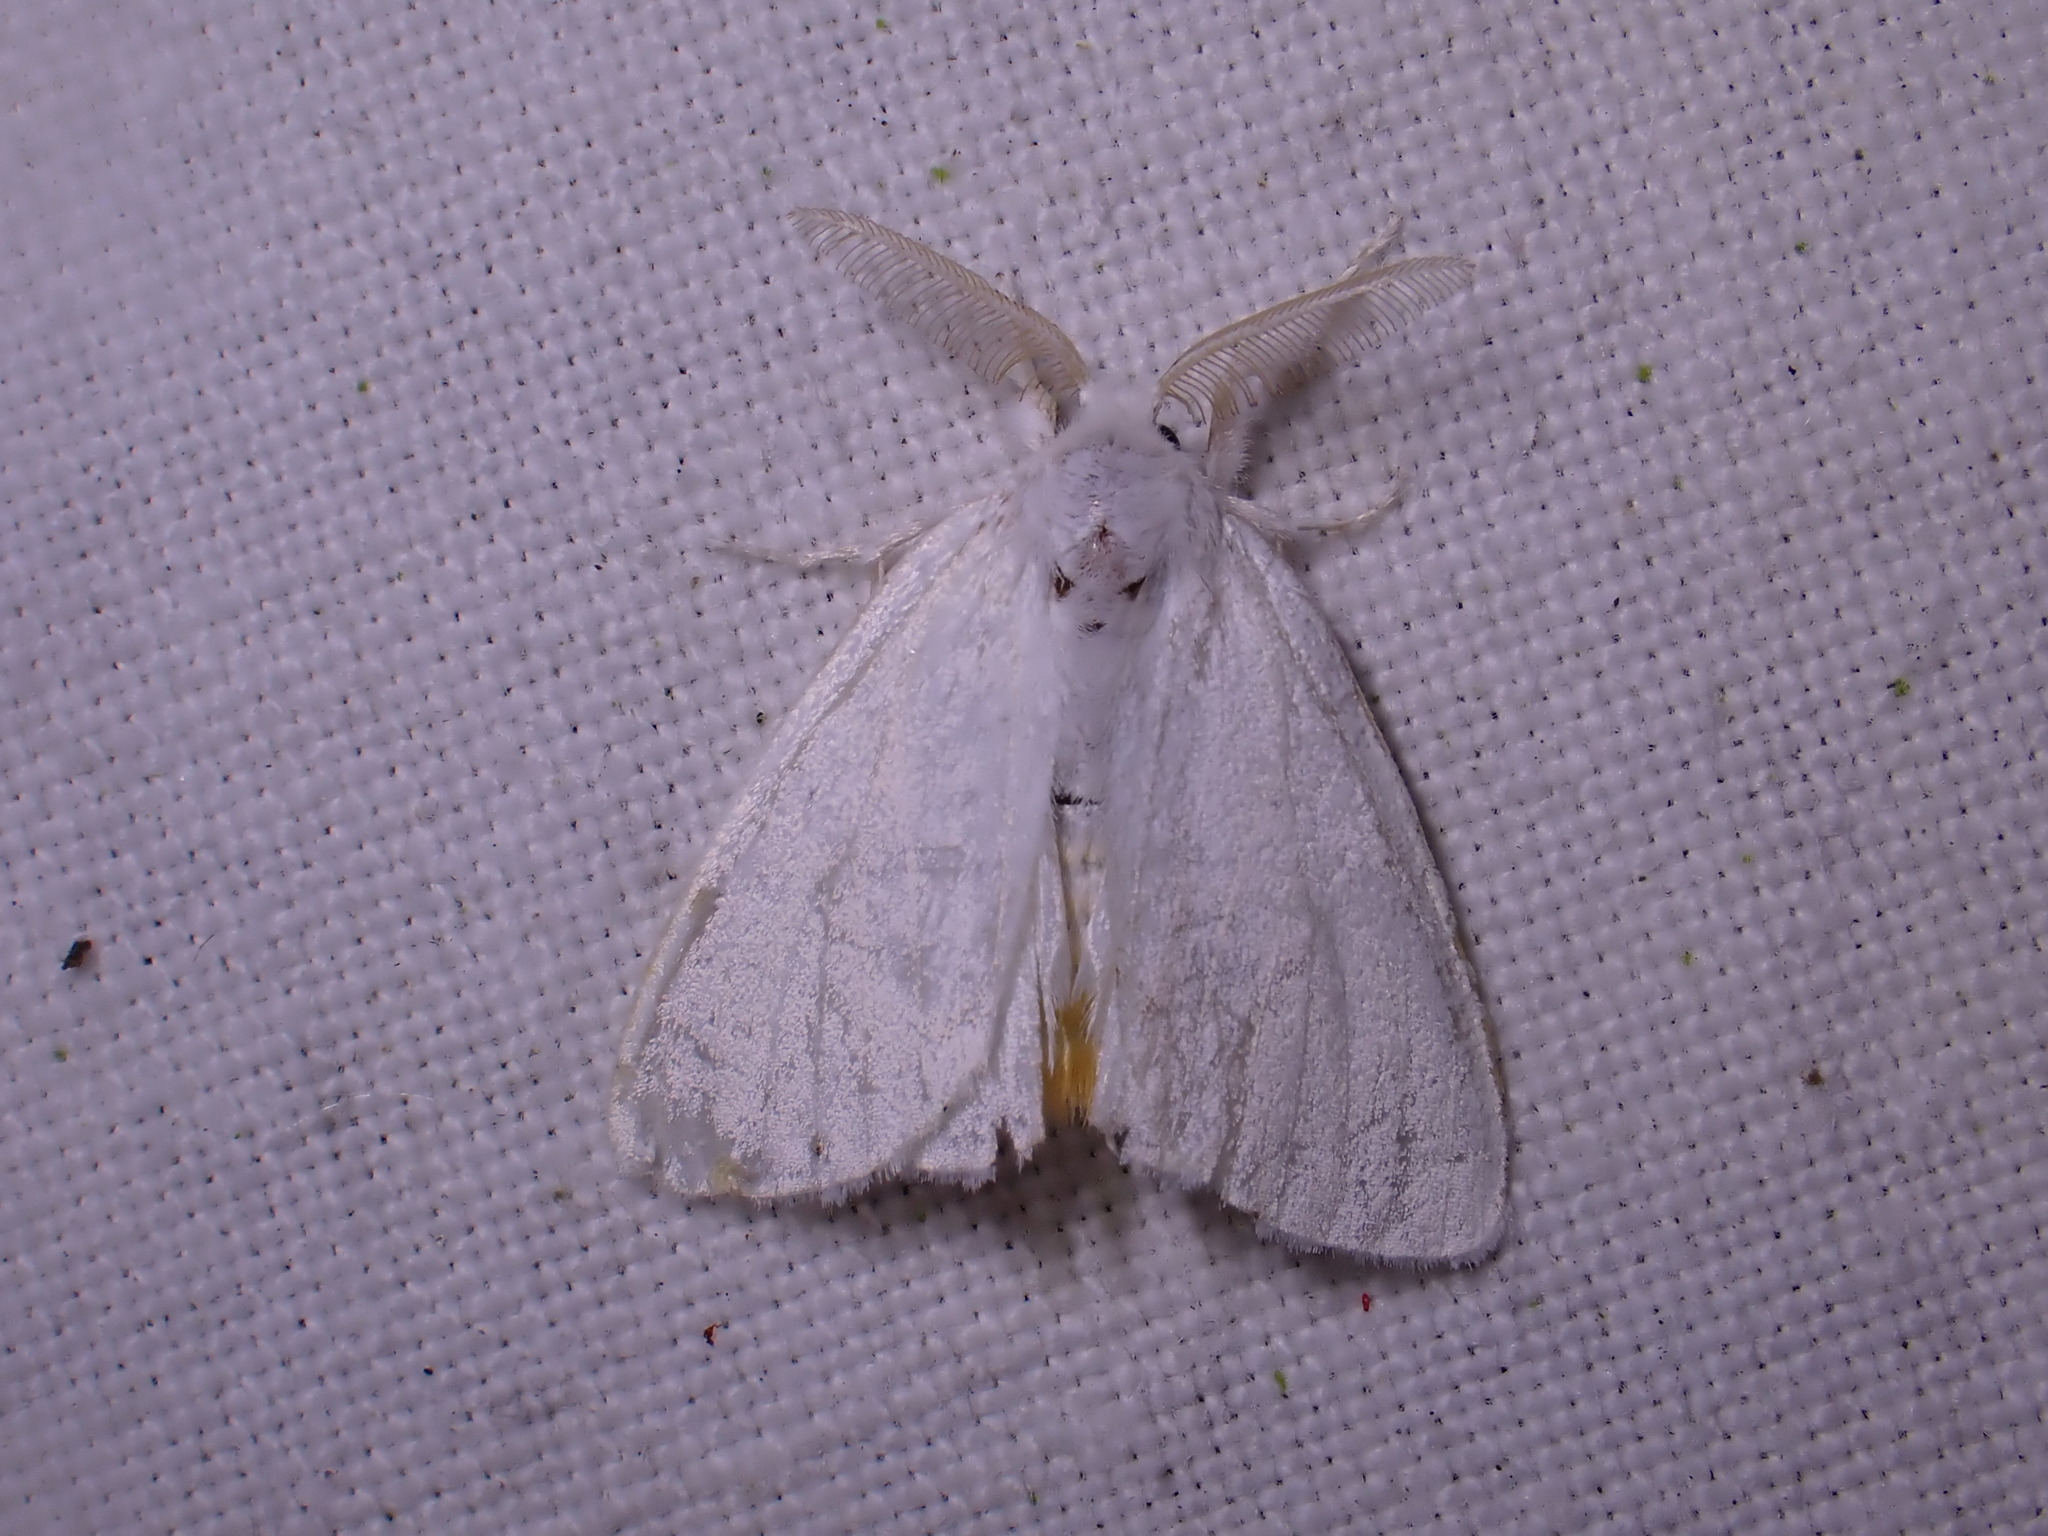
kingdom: Animalia
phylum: Arthropoda
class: Insecta
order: Lepidoptera
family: Erebidae
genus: Sphrageidus
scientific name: Sphrageidus similis
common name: Yellow-tail
